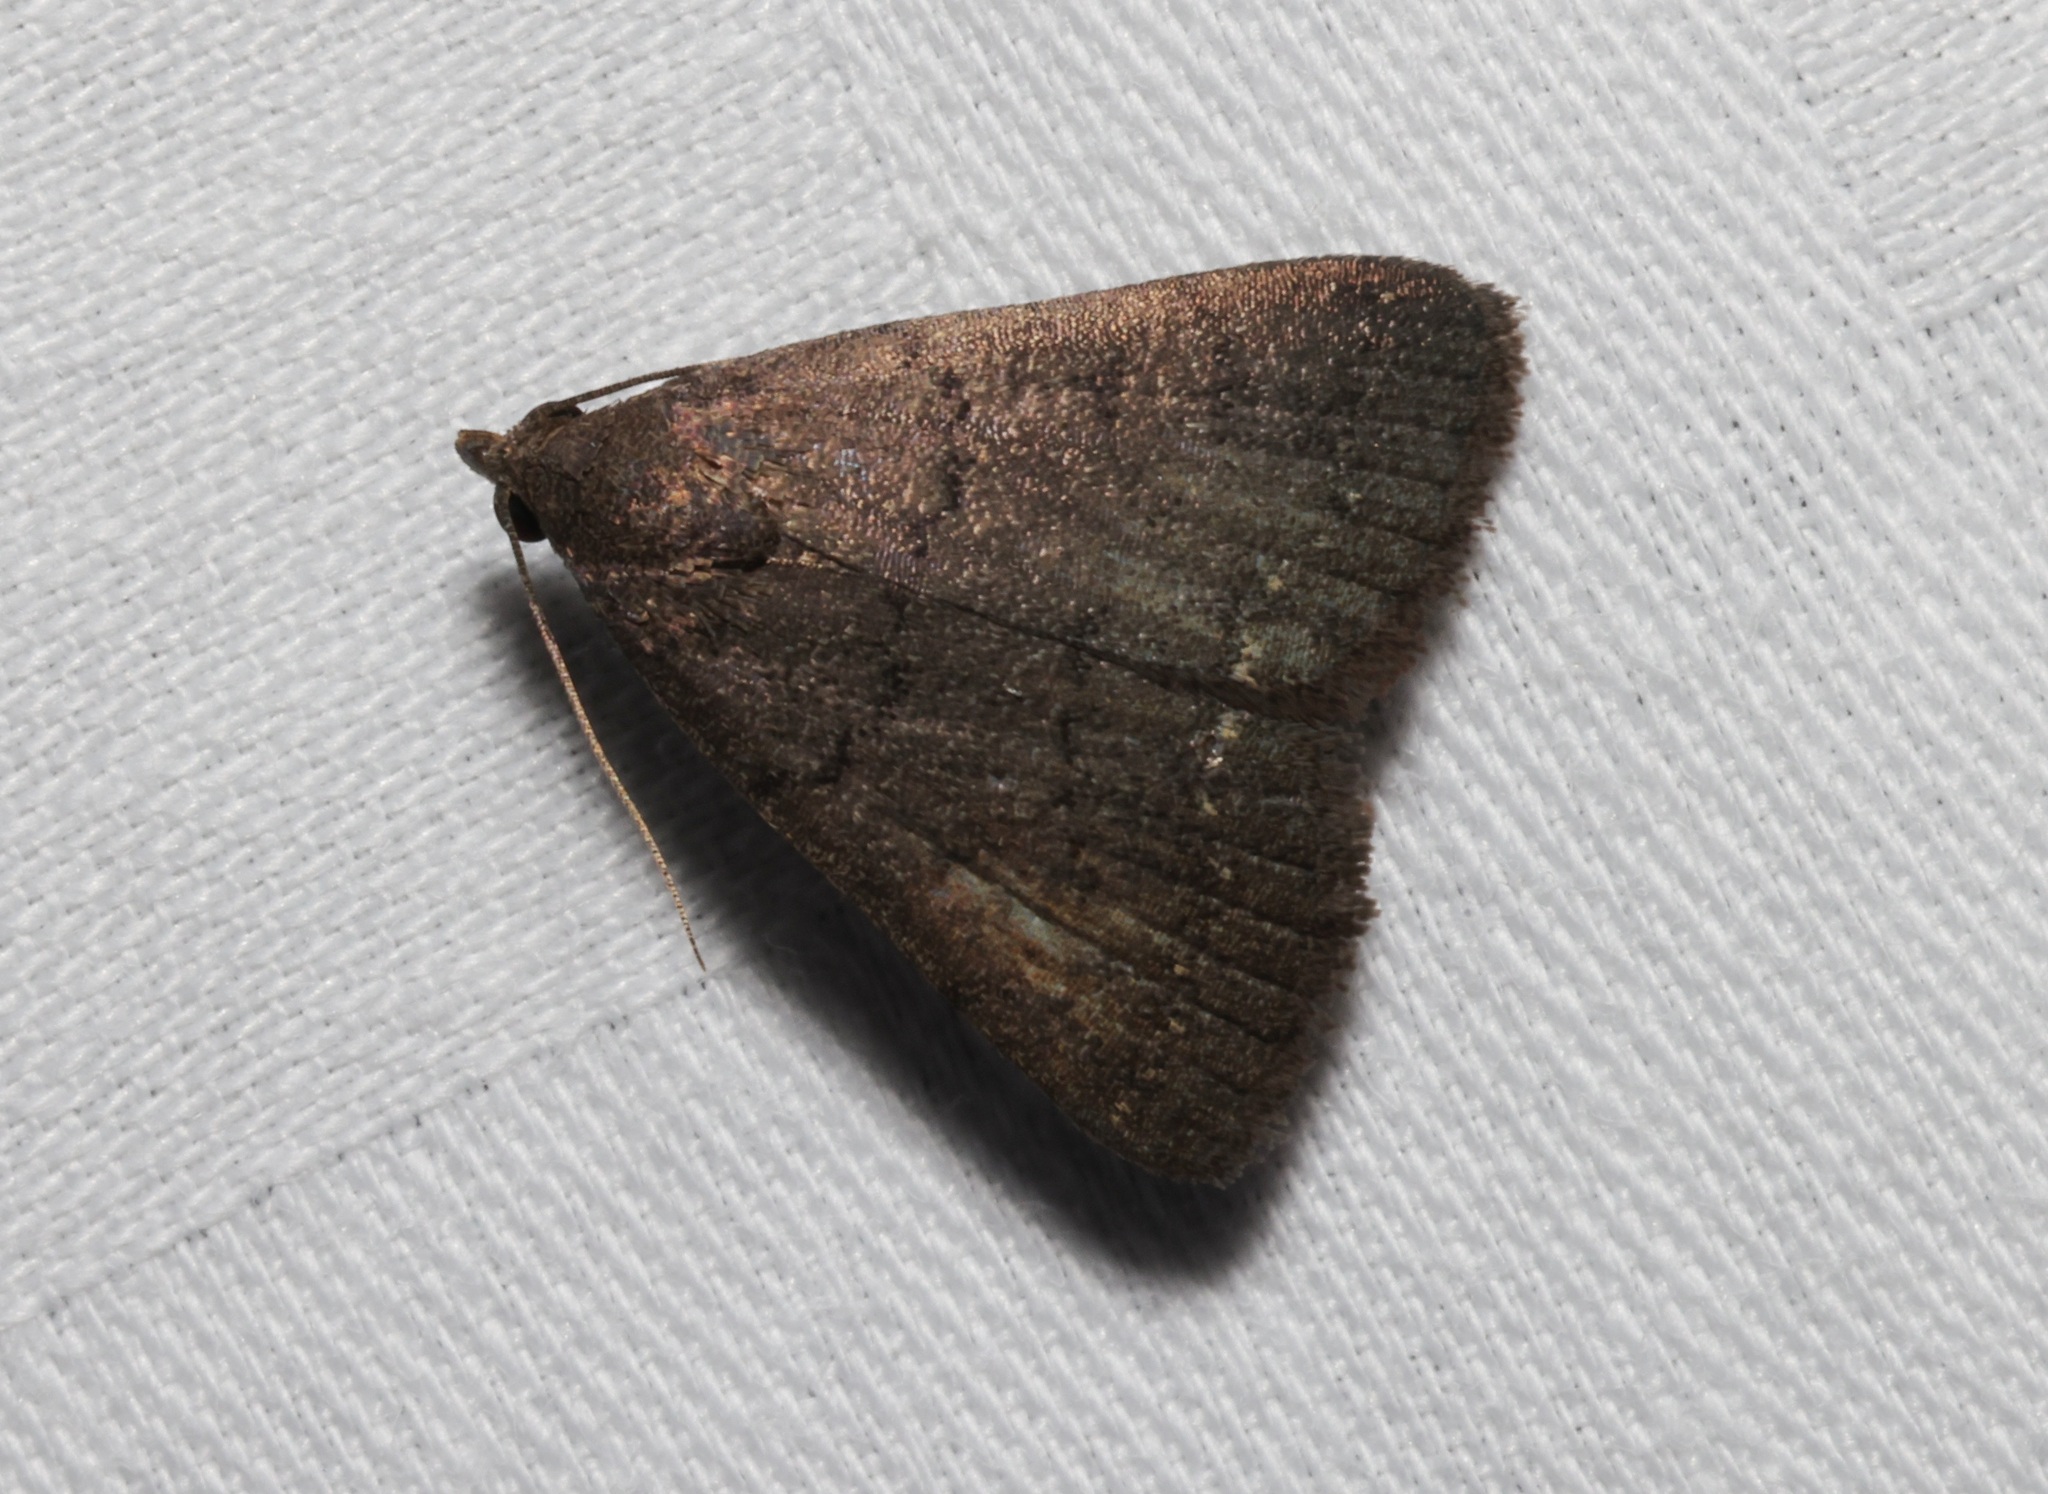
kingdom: Animalia
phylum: Arthropoda
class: Insecta
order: Lepidoptera
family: Erebidae
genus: Nodaria
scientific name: Nodaria externalis
